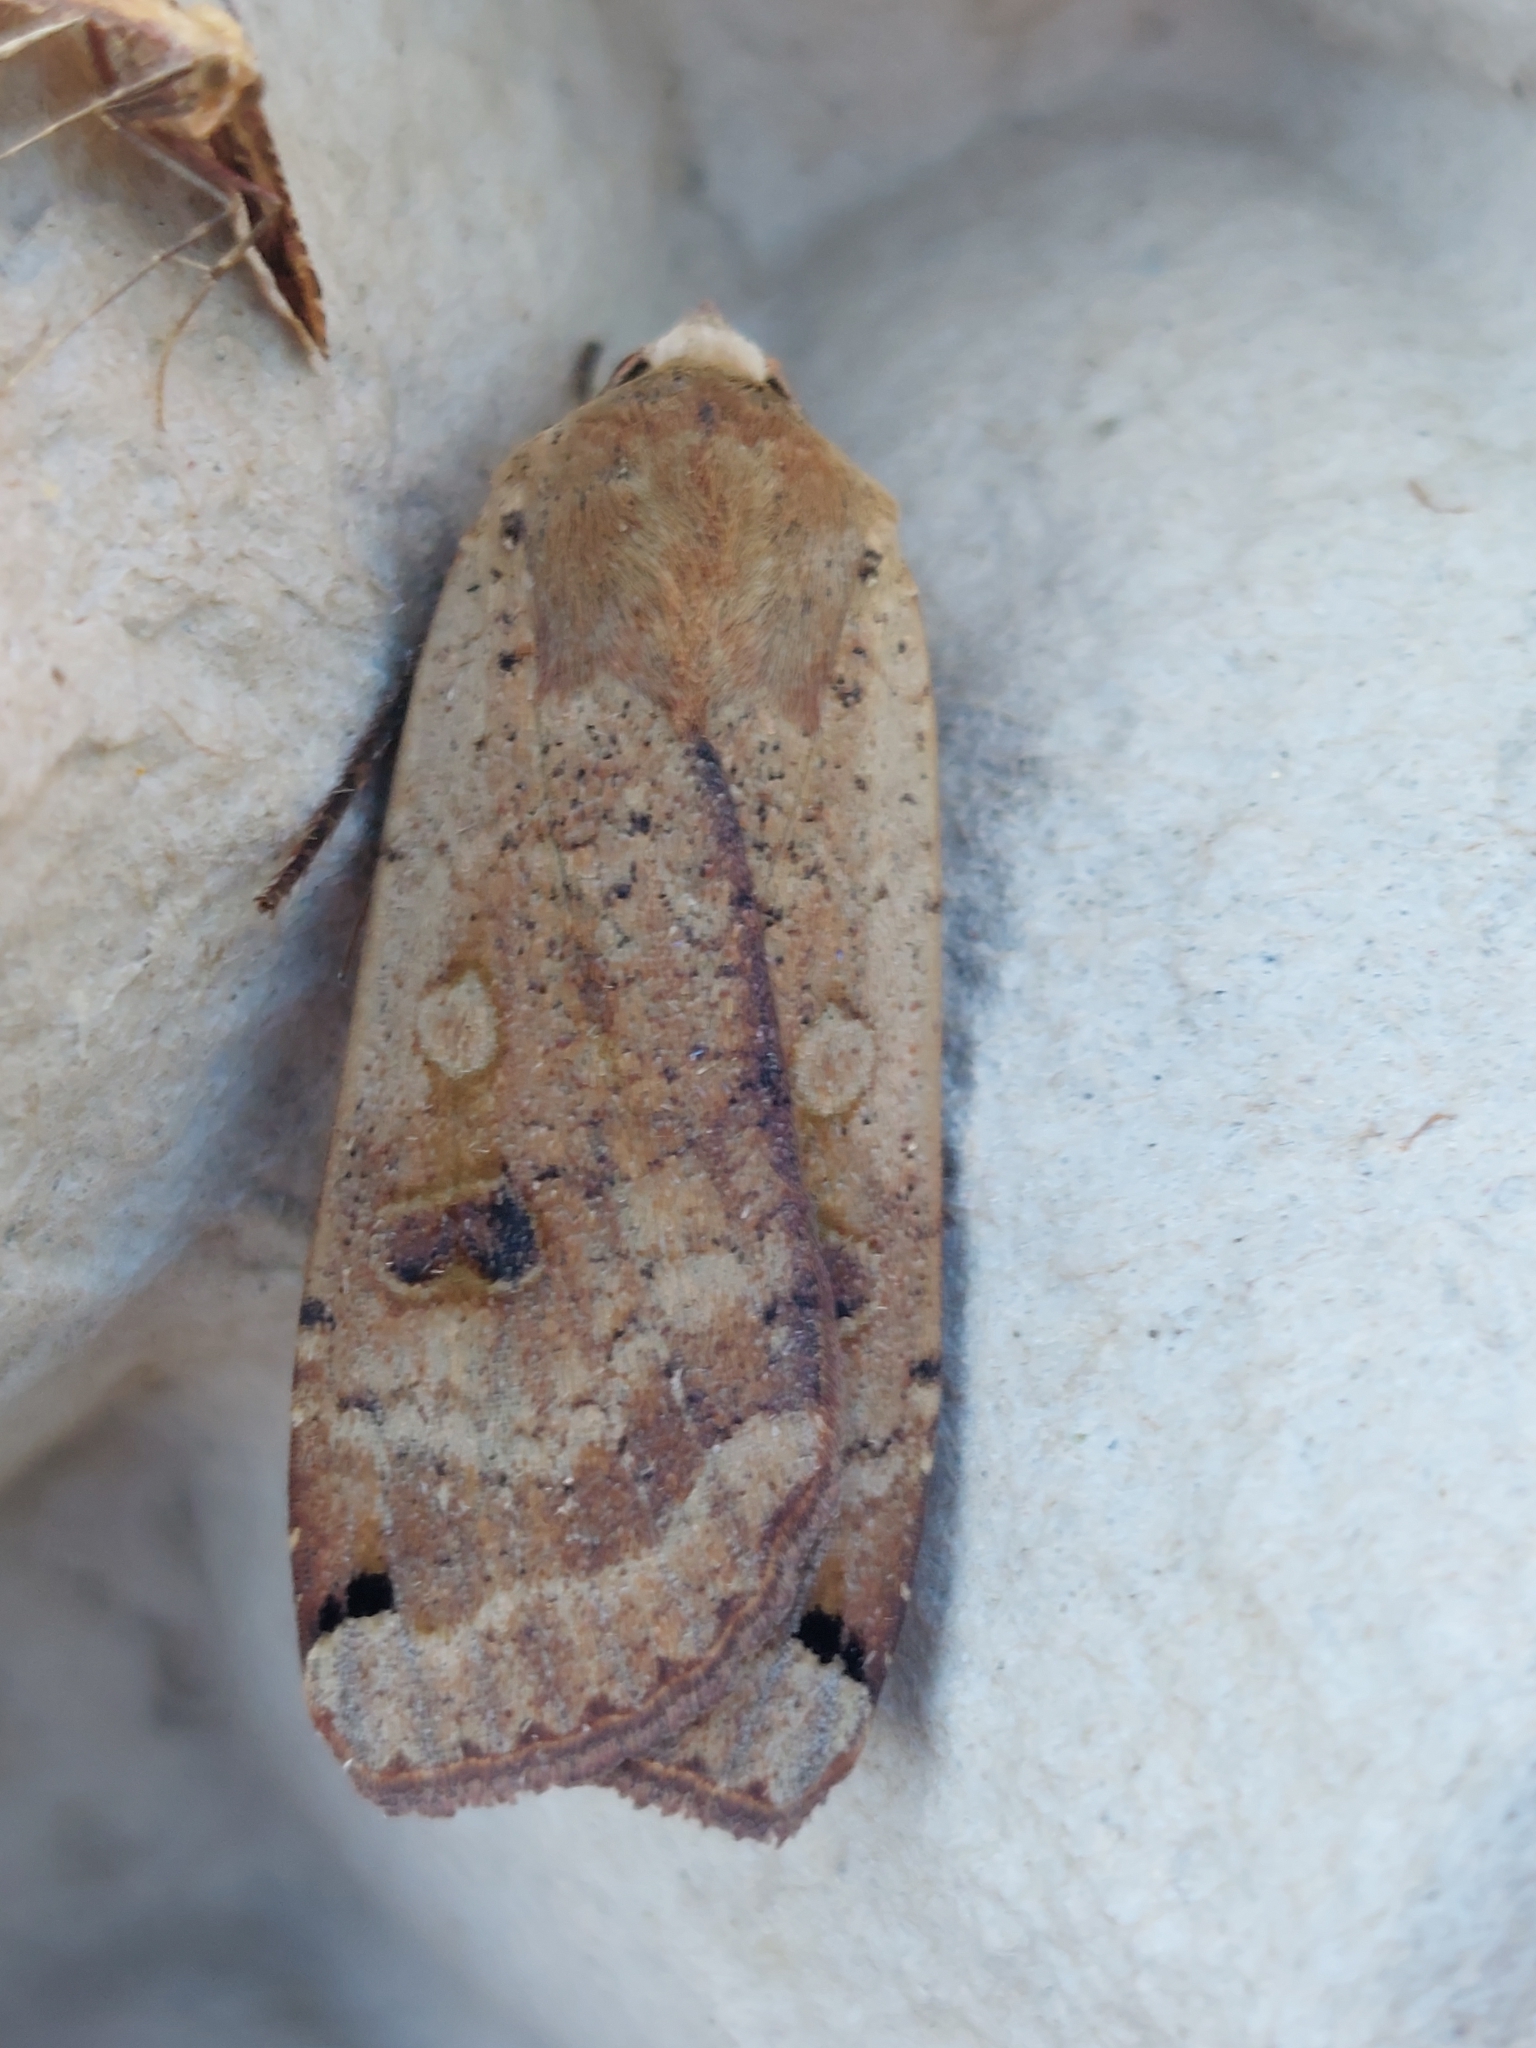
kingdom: Animalia
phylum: Arthropoda
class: Insecta
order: Lepidoptera
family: Noctuidae
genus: Noctua
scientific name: Noctua pronuba
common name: Large yellow underwing
